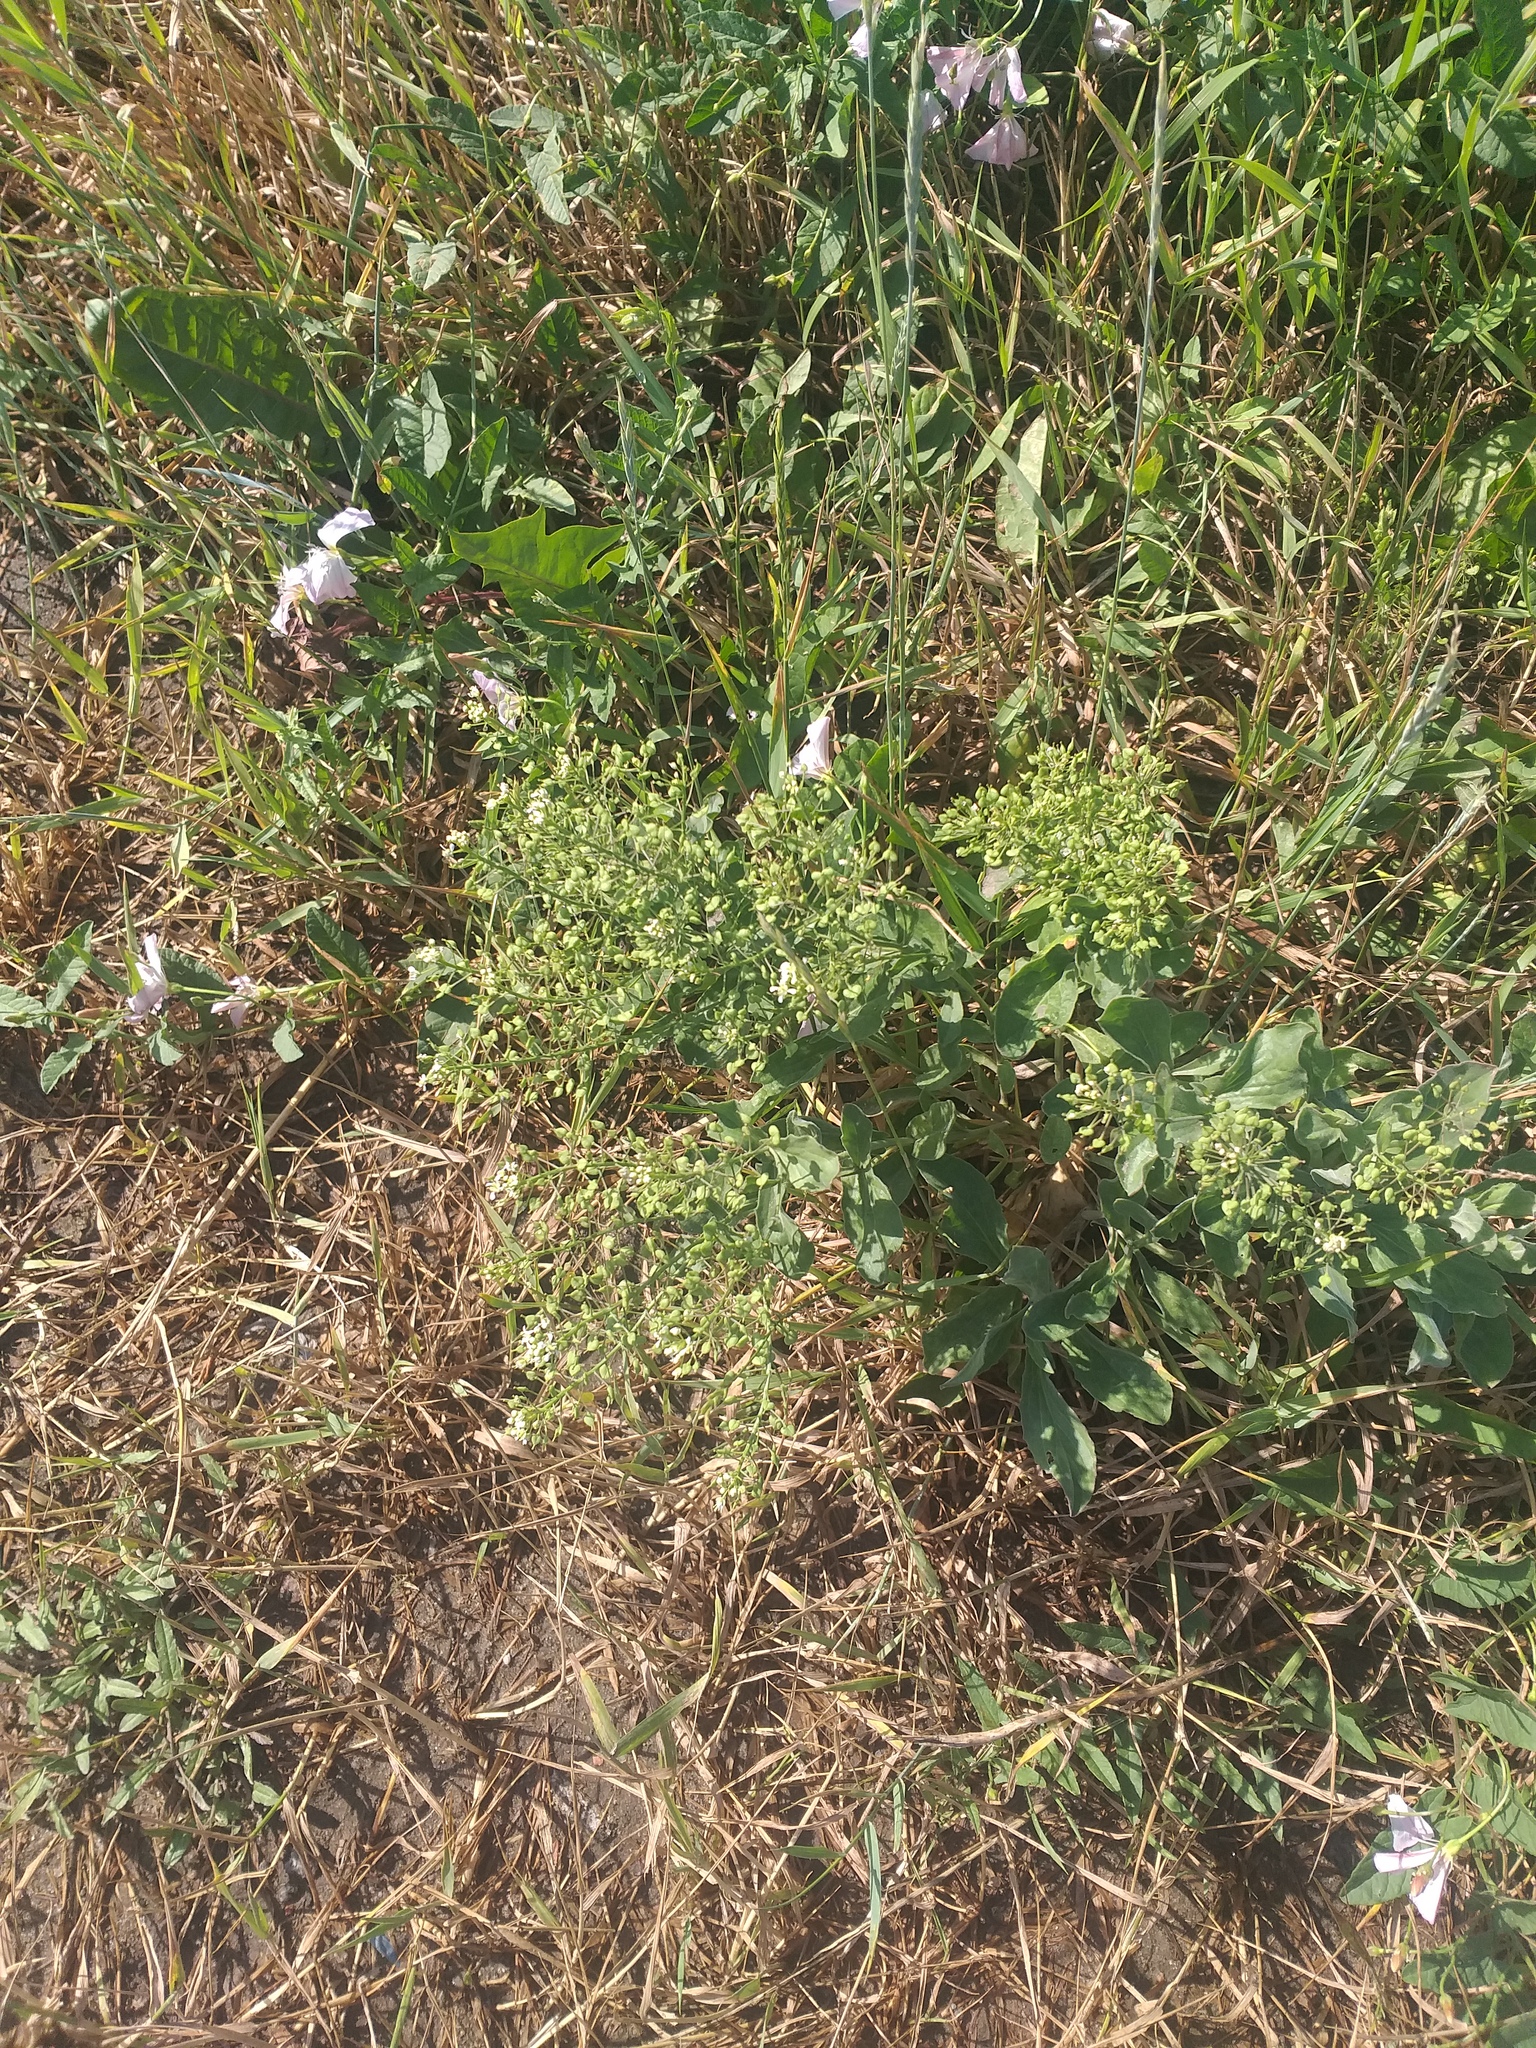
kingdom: Plantae
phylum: Tracheophyta
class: Magnoliopsida
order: Brassicales
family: Brassicaceae
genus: Lepidium
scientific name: Lepidium draba
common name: Hoary cress
